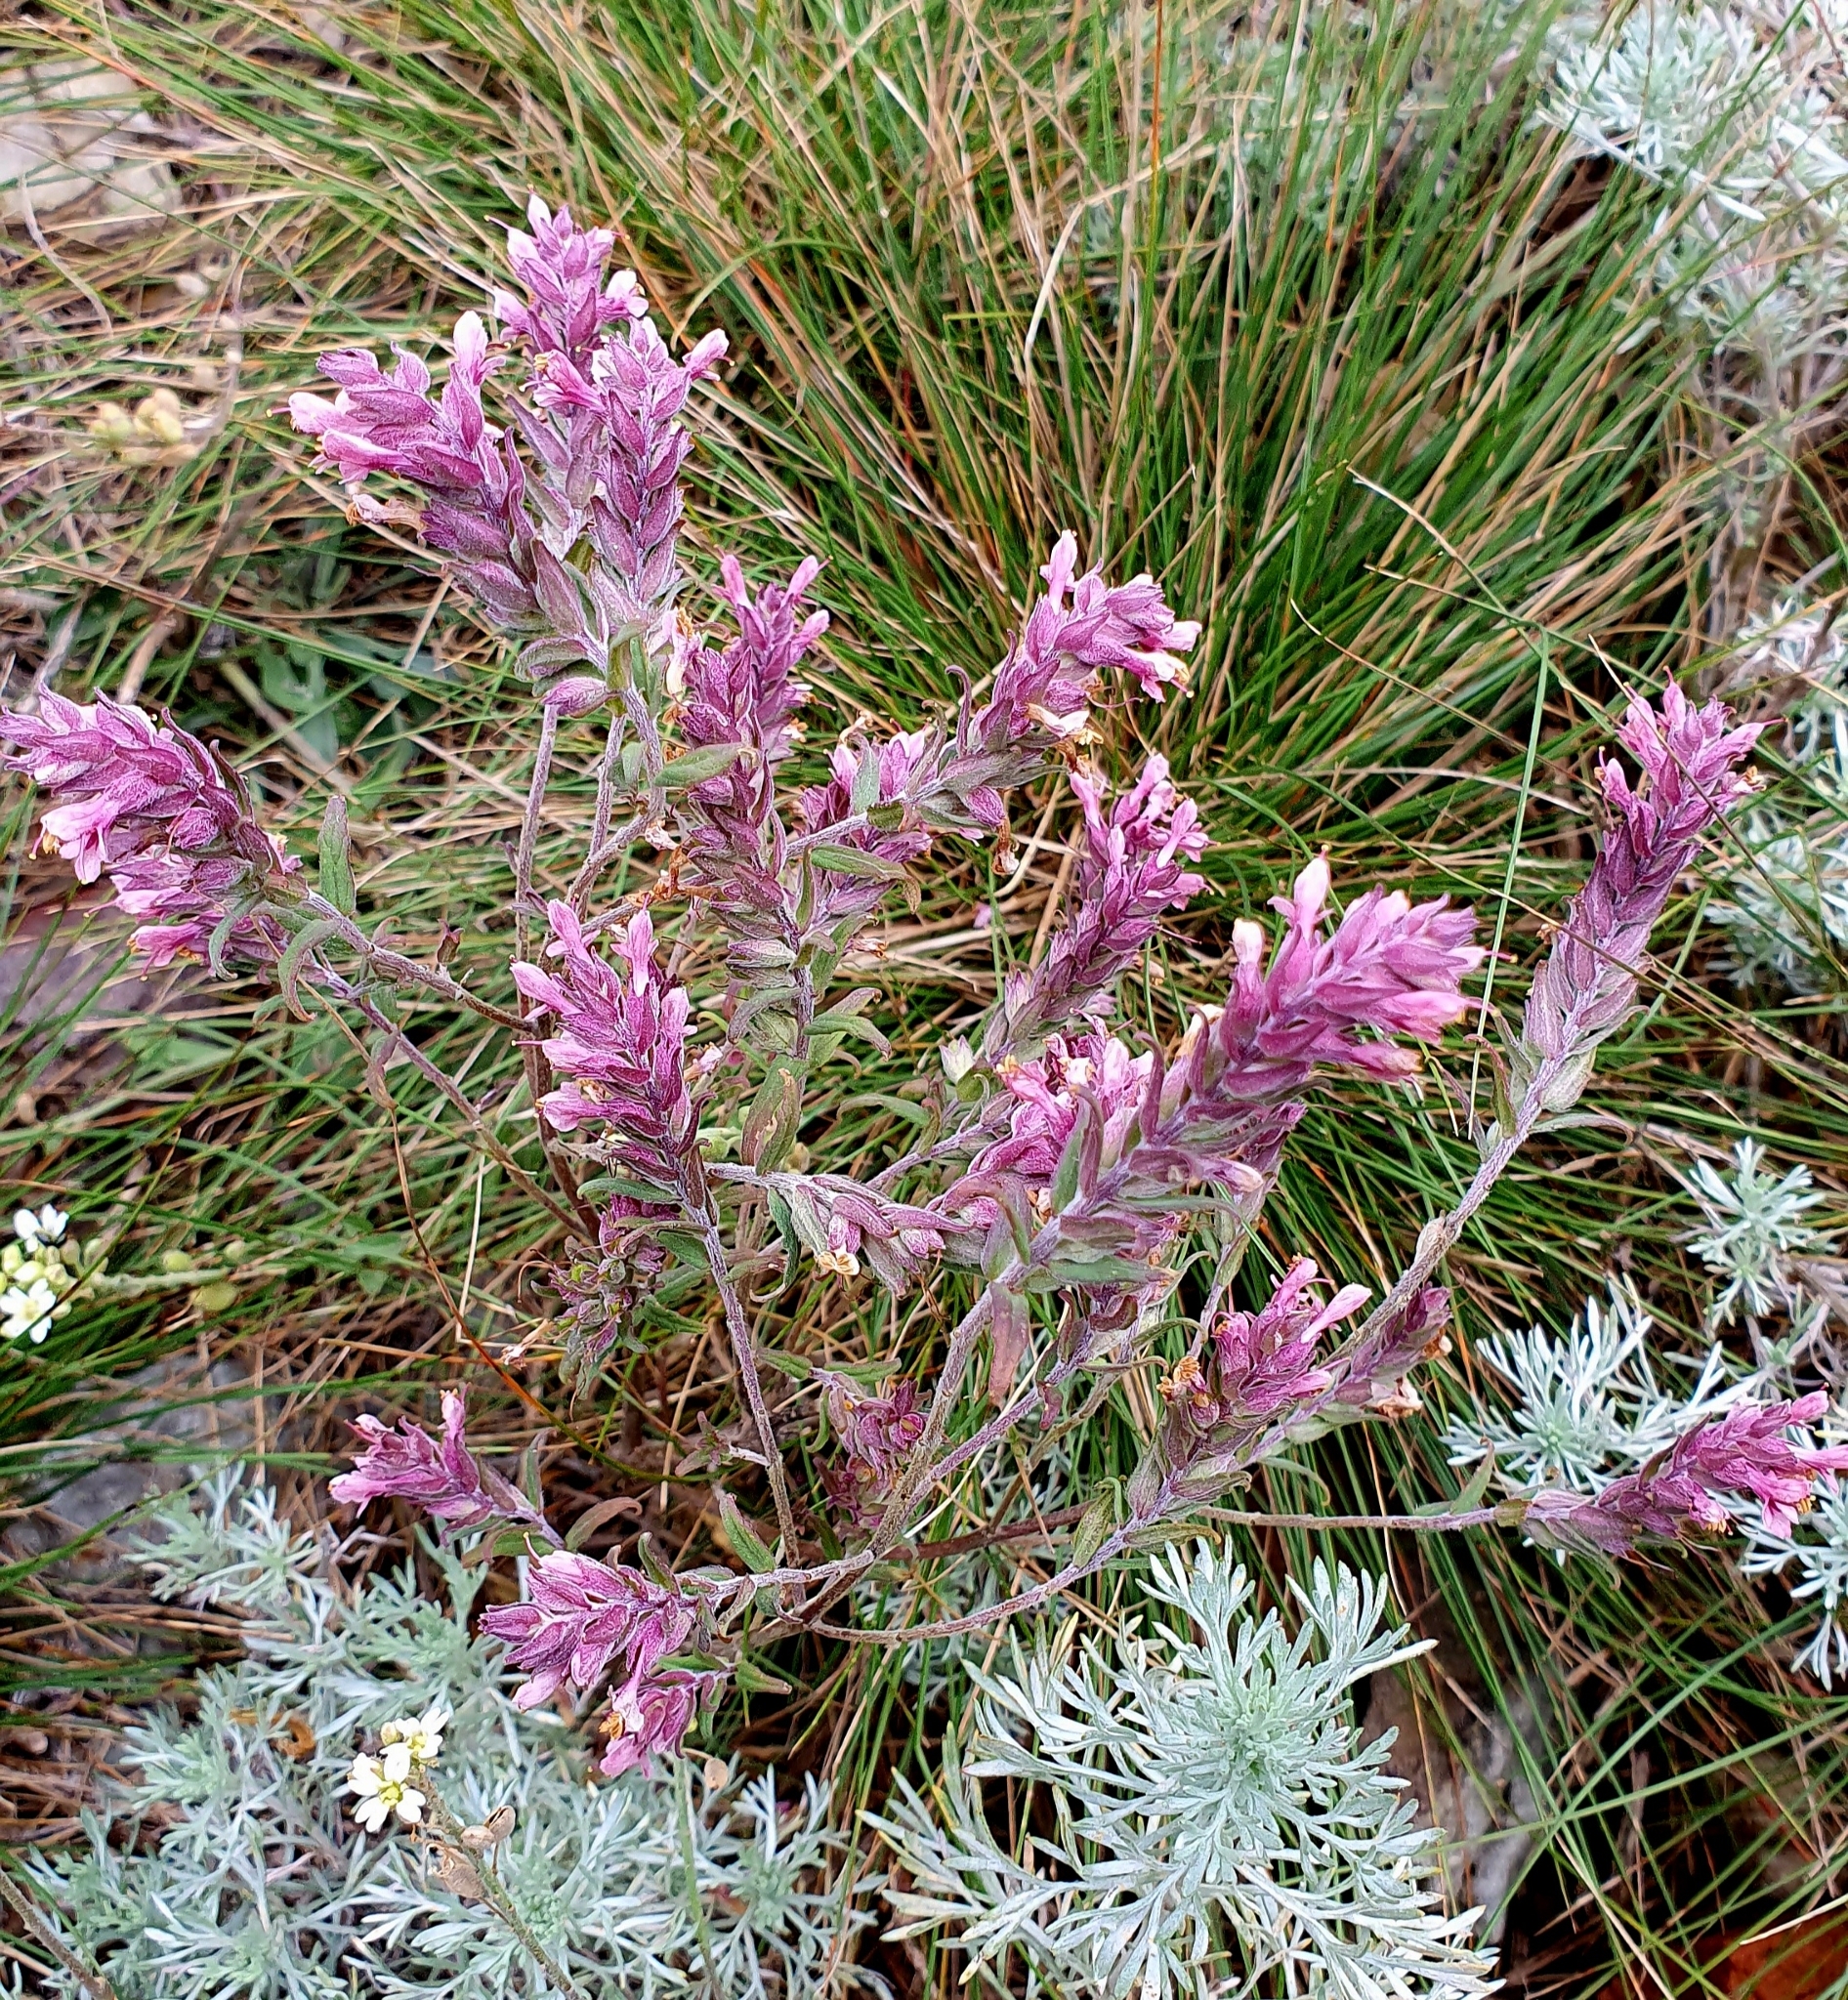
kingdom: Plantae
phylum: Tracheophyta
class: Magnoliopsida
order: Lamiales
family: Orobanchaceae
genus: Odontites
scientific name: Odontites vulgaris
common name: Broomrape
